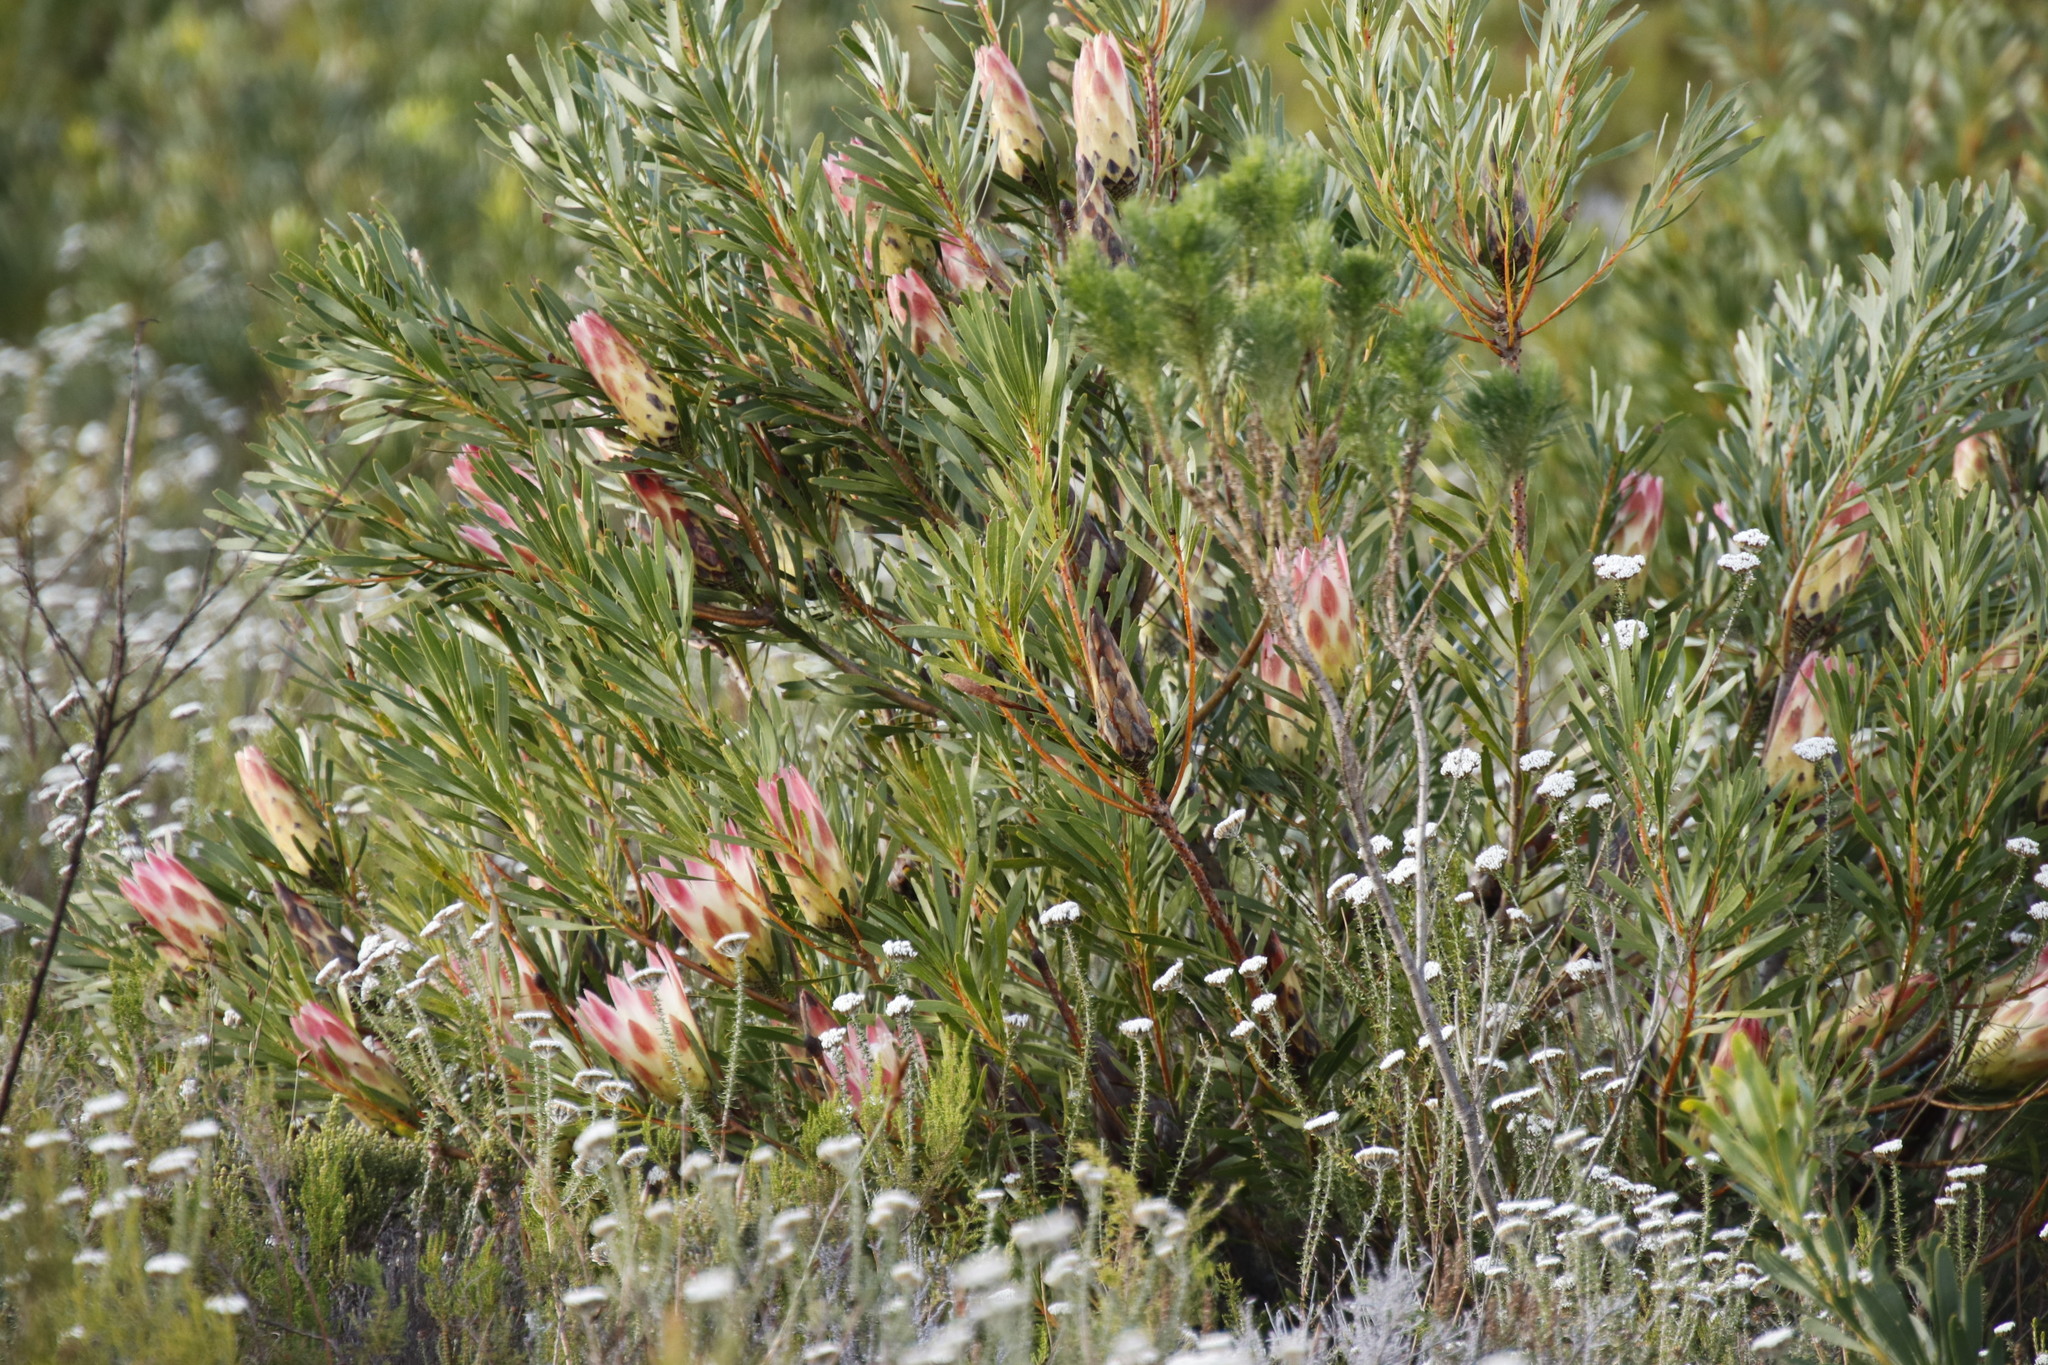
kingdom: Plantae
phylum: Tracheophyta
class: Magnoliopsida
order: Proteales
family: Proteaceae
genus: Protea
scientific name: Protea repens
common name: Sugarbush
